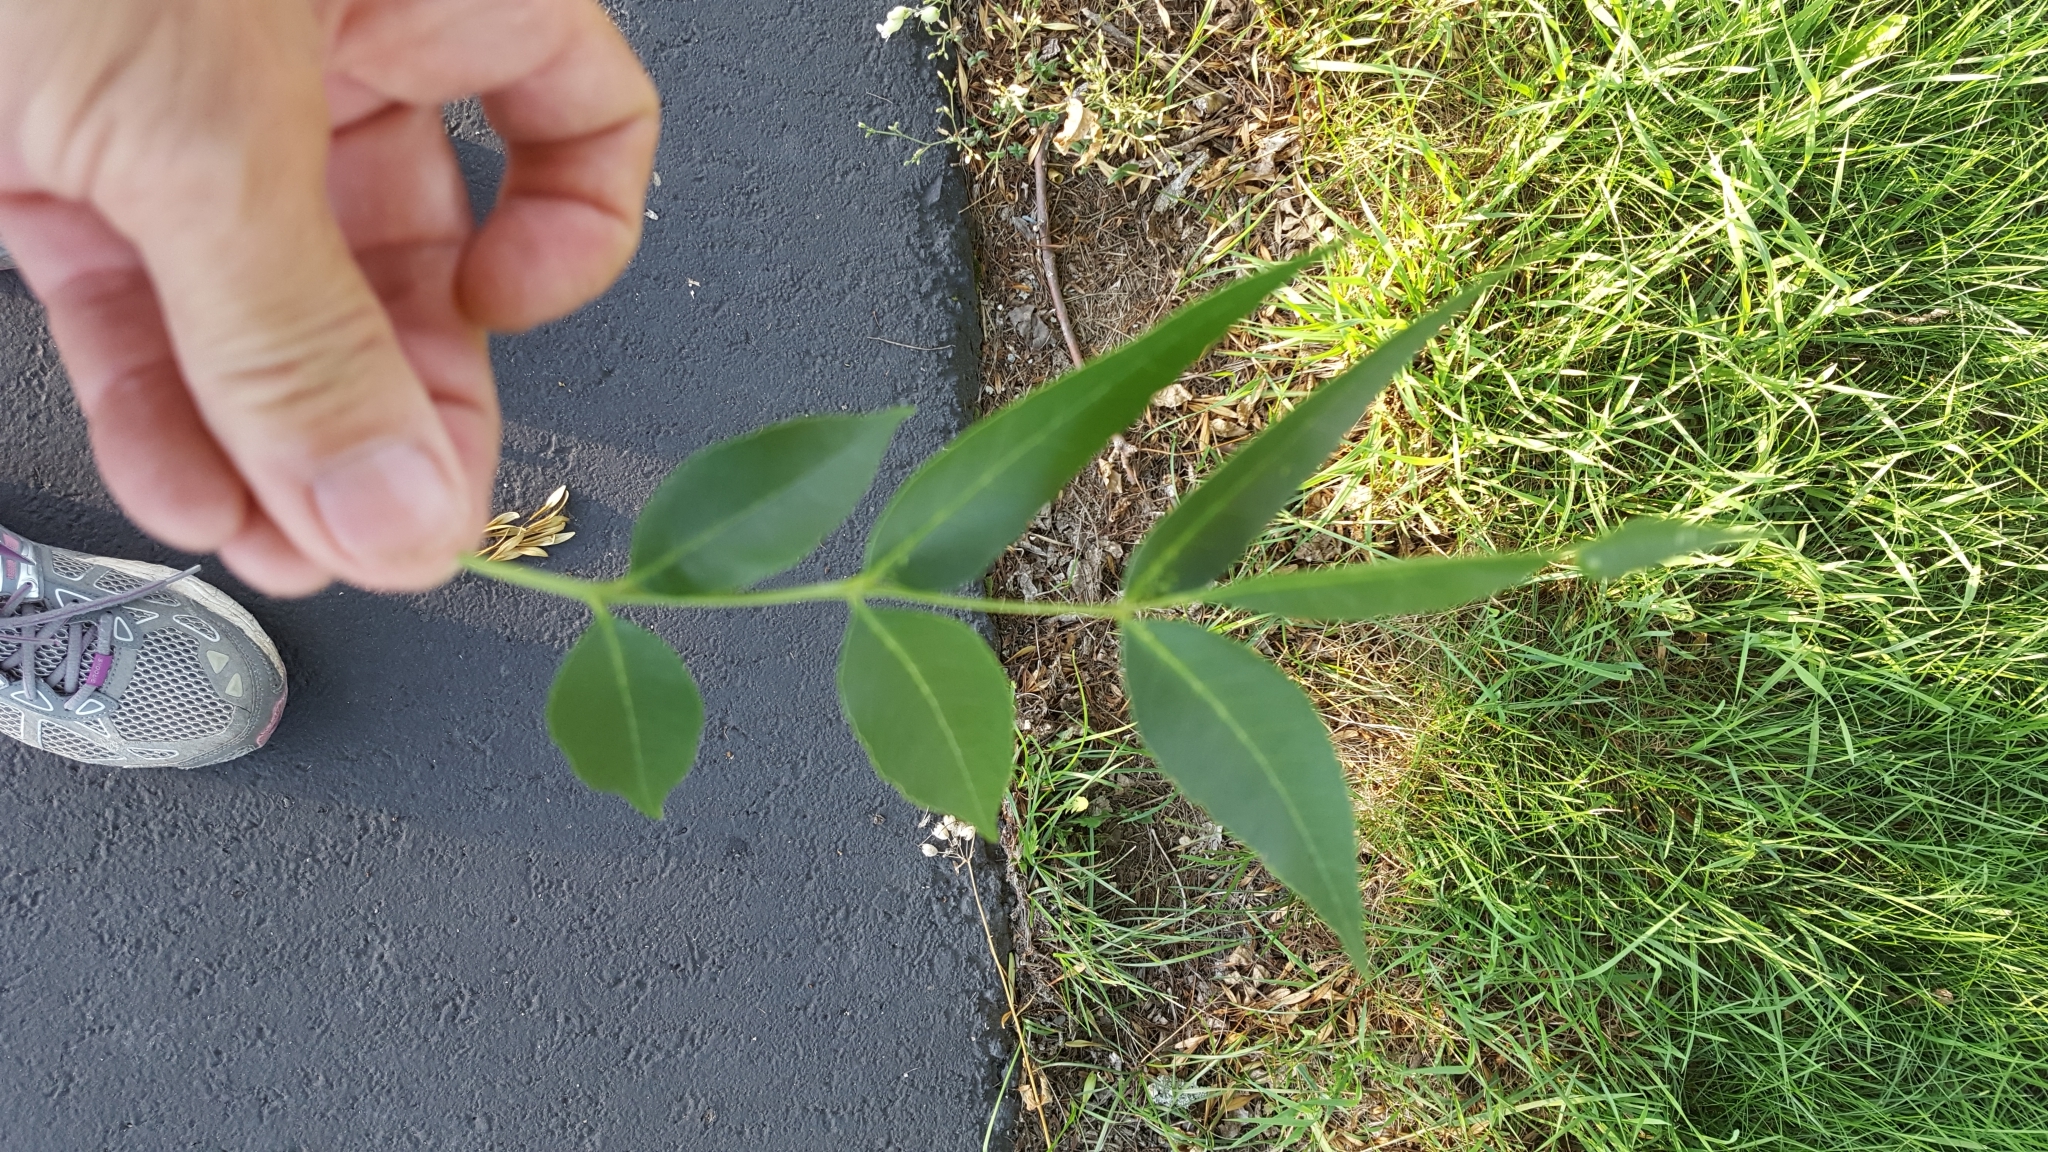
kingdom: Plantae
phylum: Tracheophyta
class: Magnoliopsida
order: Lamiales
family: Oleaceae
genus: Fraxinus
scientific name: Fraxinus pennsylvanica
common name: Green ash
